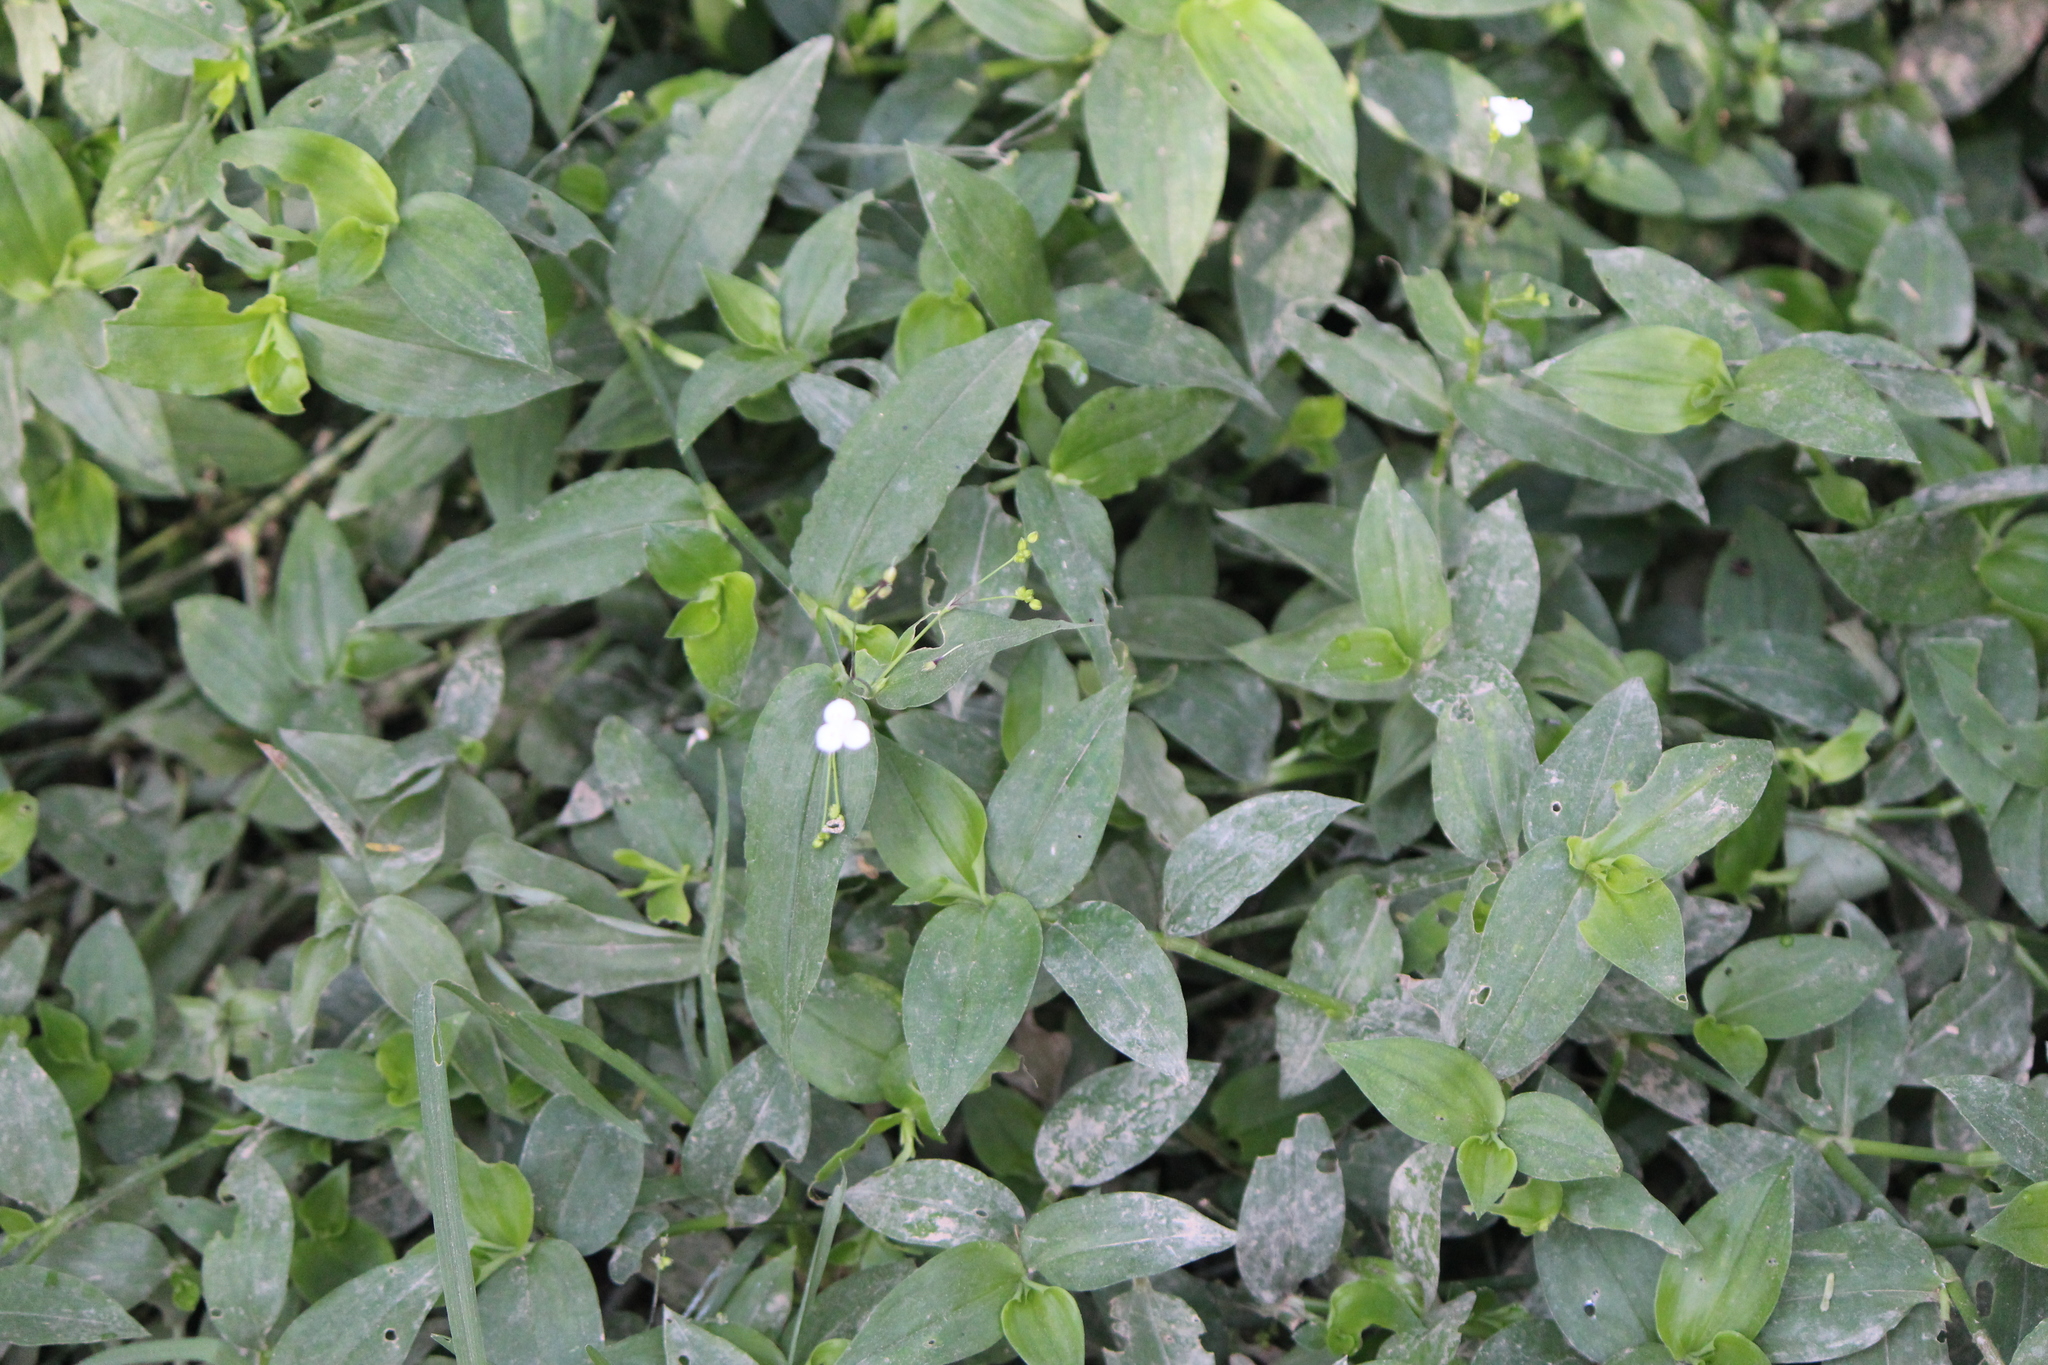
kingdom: Plantae
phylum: Tracheophyta
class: Liliopsida
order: Commelinales
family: Commelinaceae
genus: Gibasis
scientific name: Gibasis pellucida
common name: Dotted bridalveil
